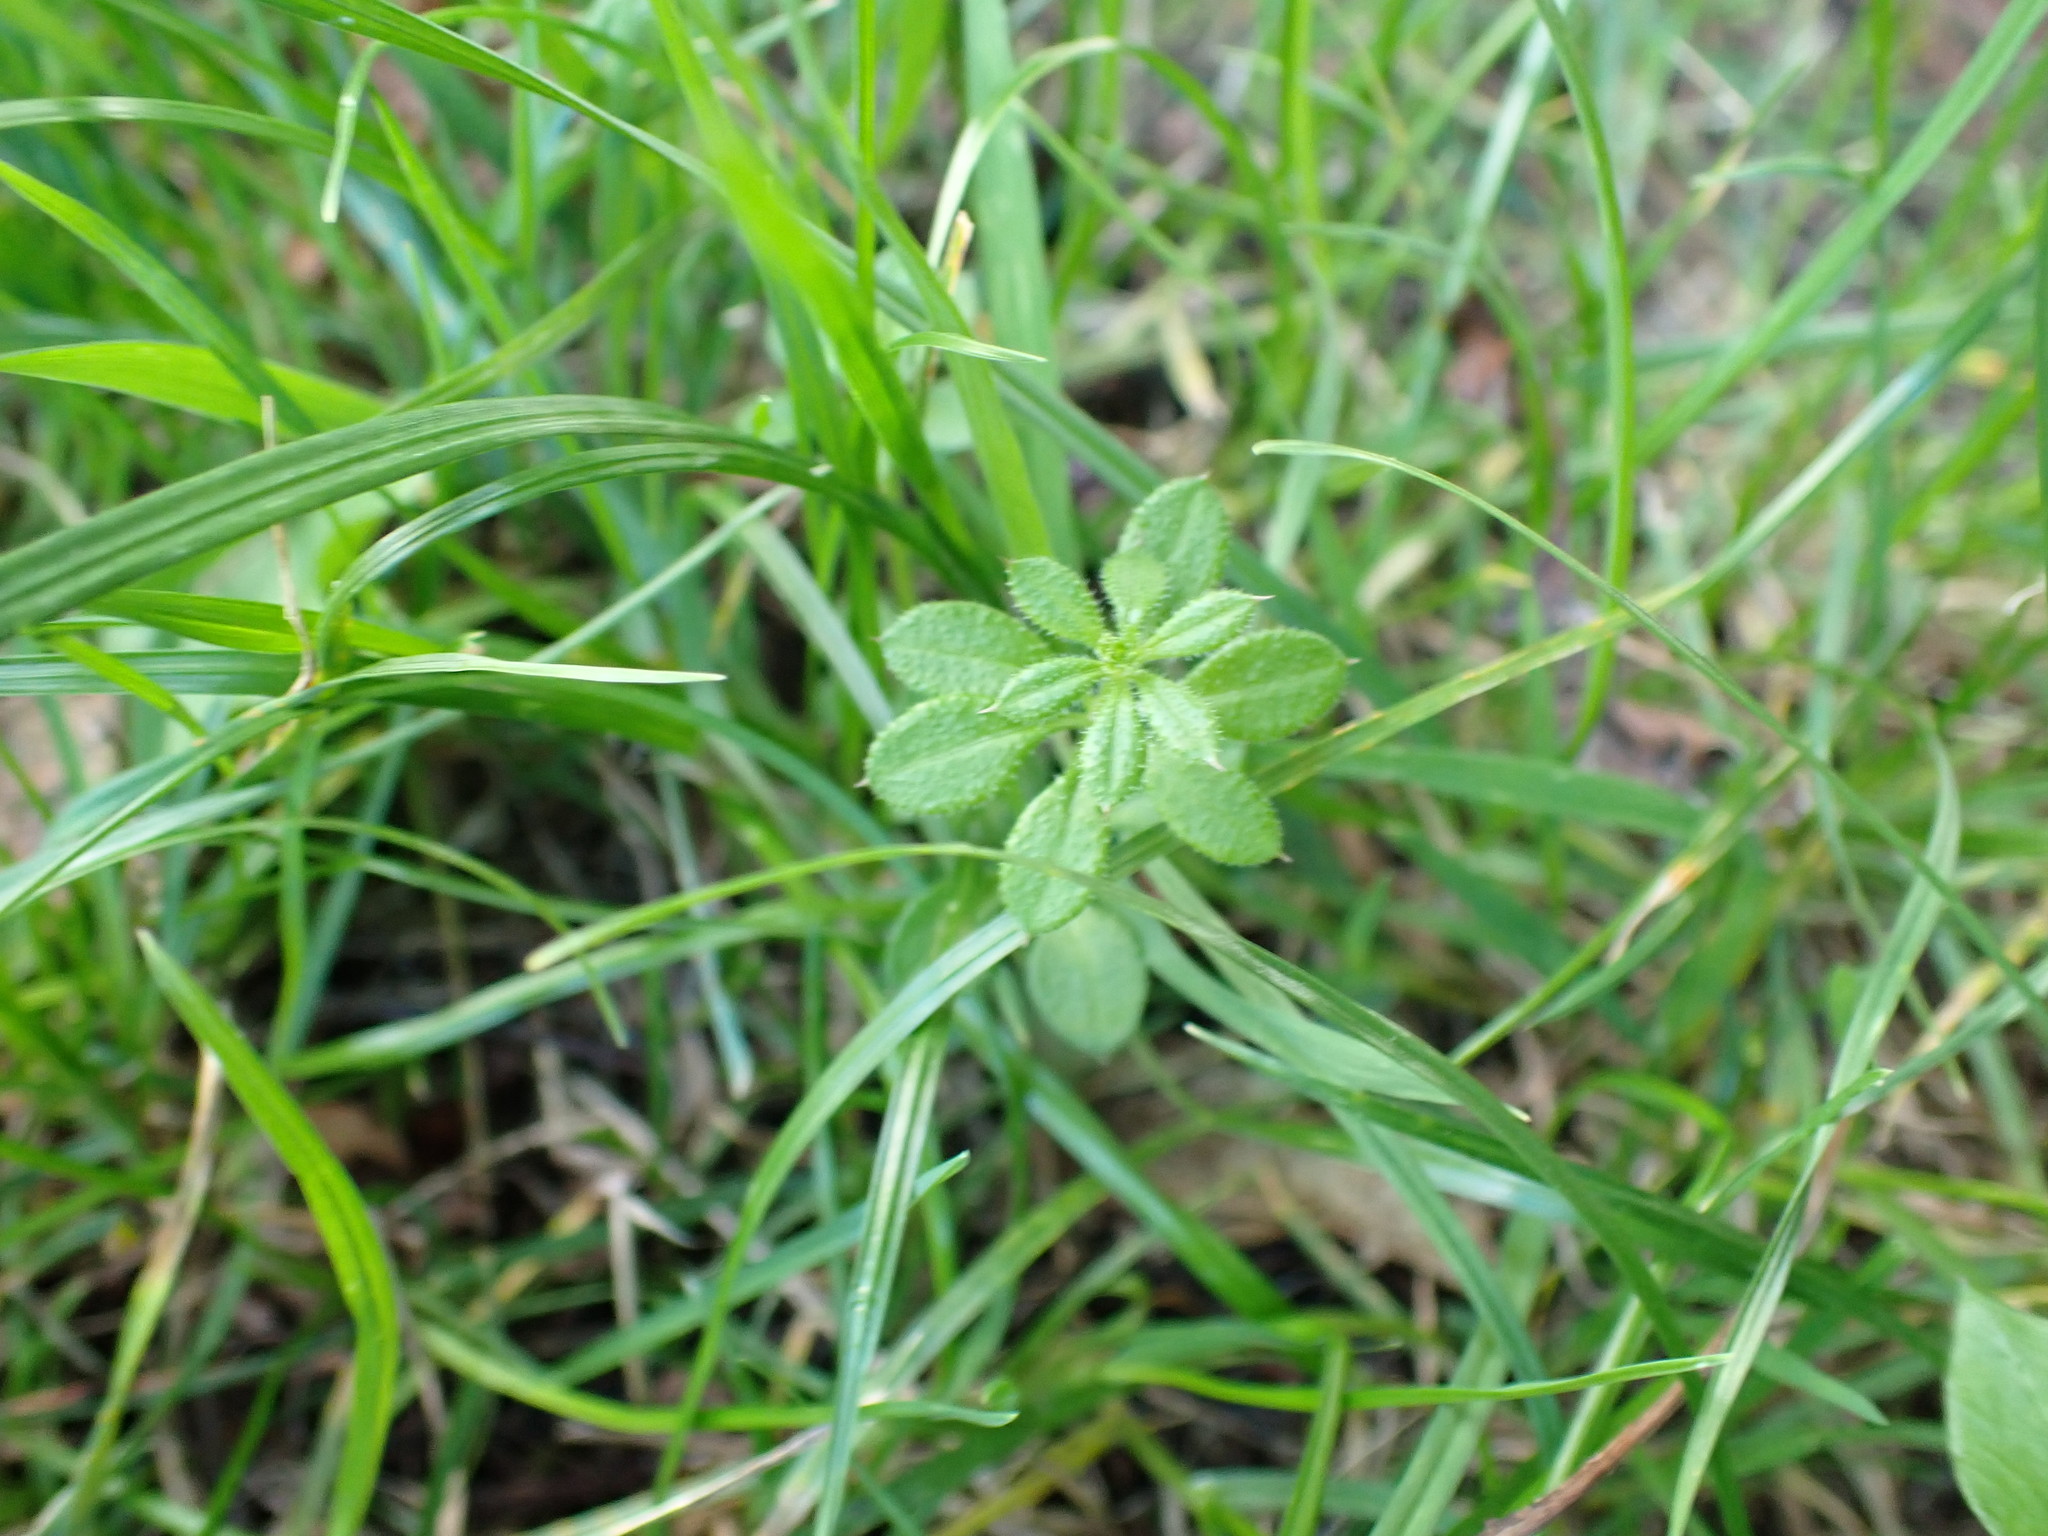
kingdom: Plantae
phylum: Tracheophyta
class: Magnoliopsida
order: Gentianales
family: Rubiaceae
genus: Galium
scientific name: Galium aparine
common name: Cleavers
